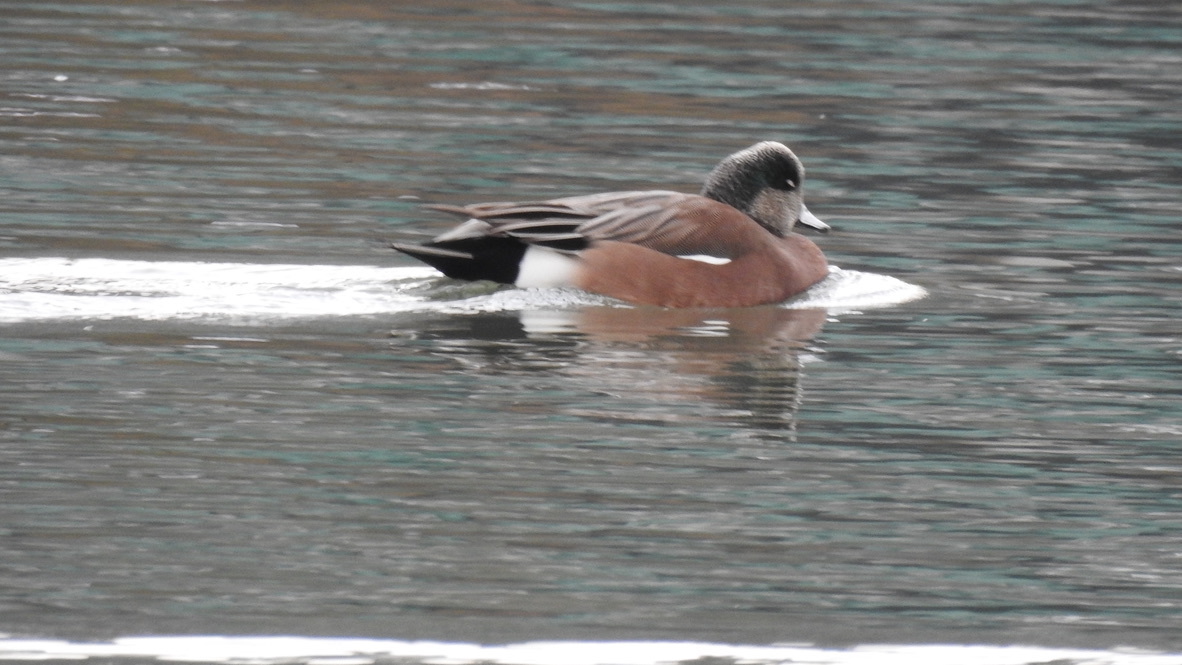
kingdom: Animalia
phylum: Chordata
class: Aves
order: Anseriformes
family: Anatidae
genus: Mareca
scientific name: Mareca americana
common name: American wigeon
